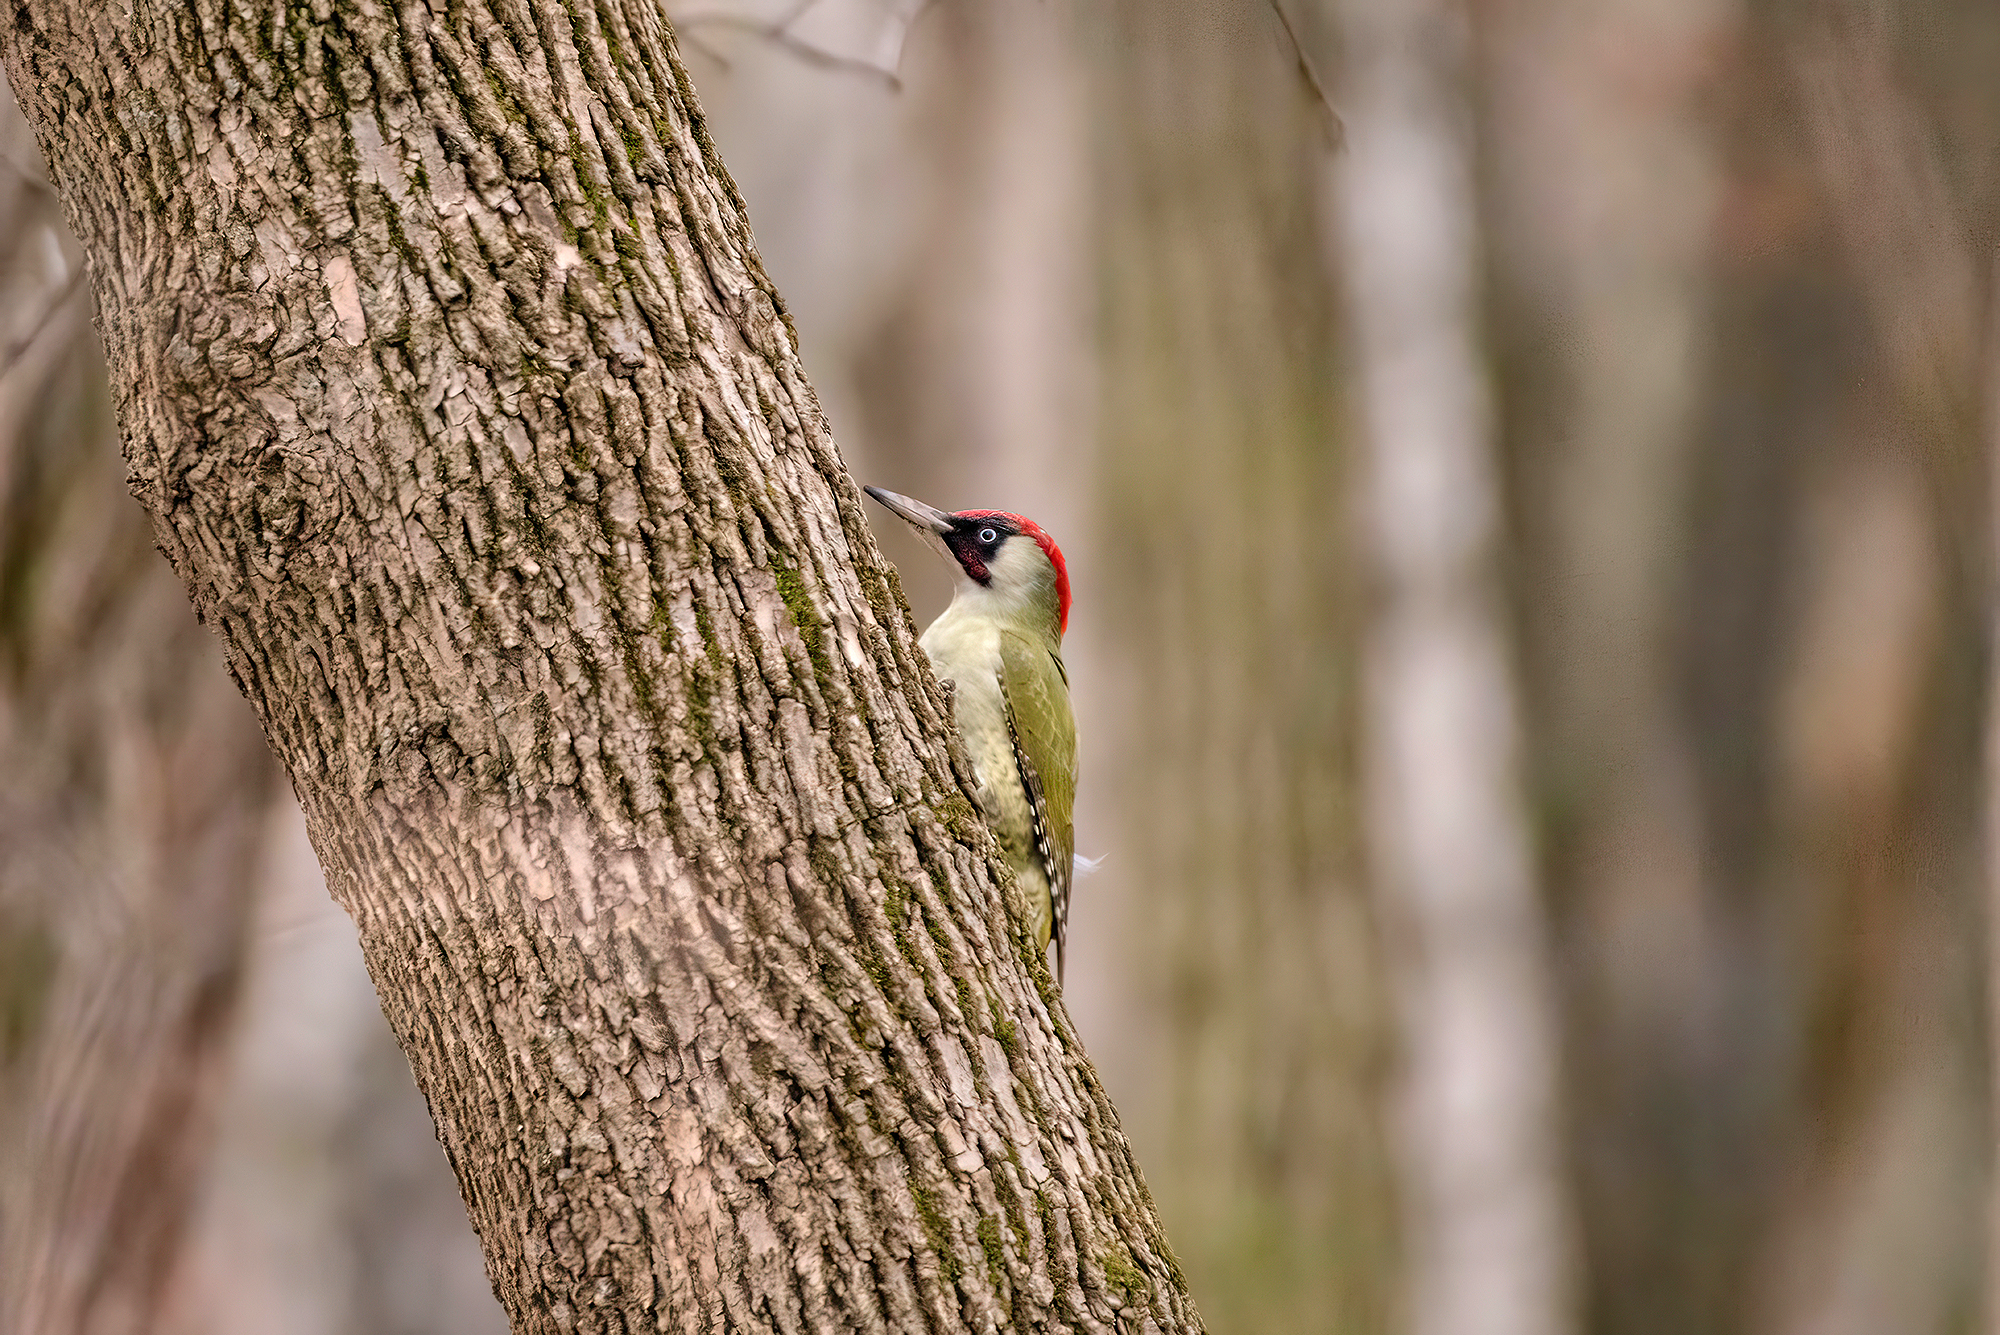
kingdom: Animalia
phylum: Chordata
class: Aves
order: Piciformes
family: Picidae
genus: Picus
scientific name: Picus viridis
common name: European green woodpecker
